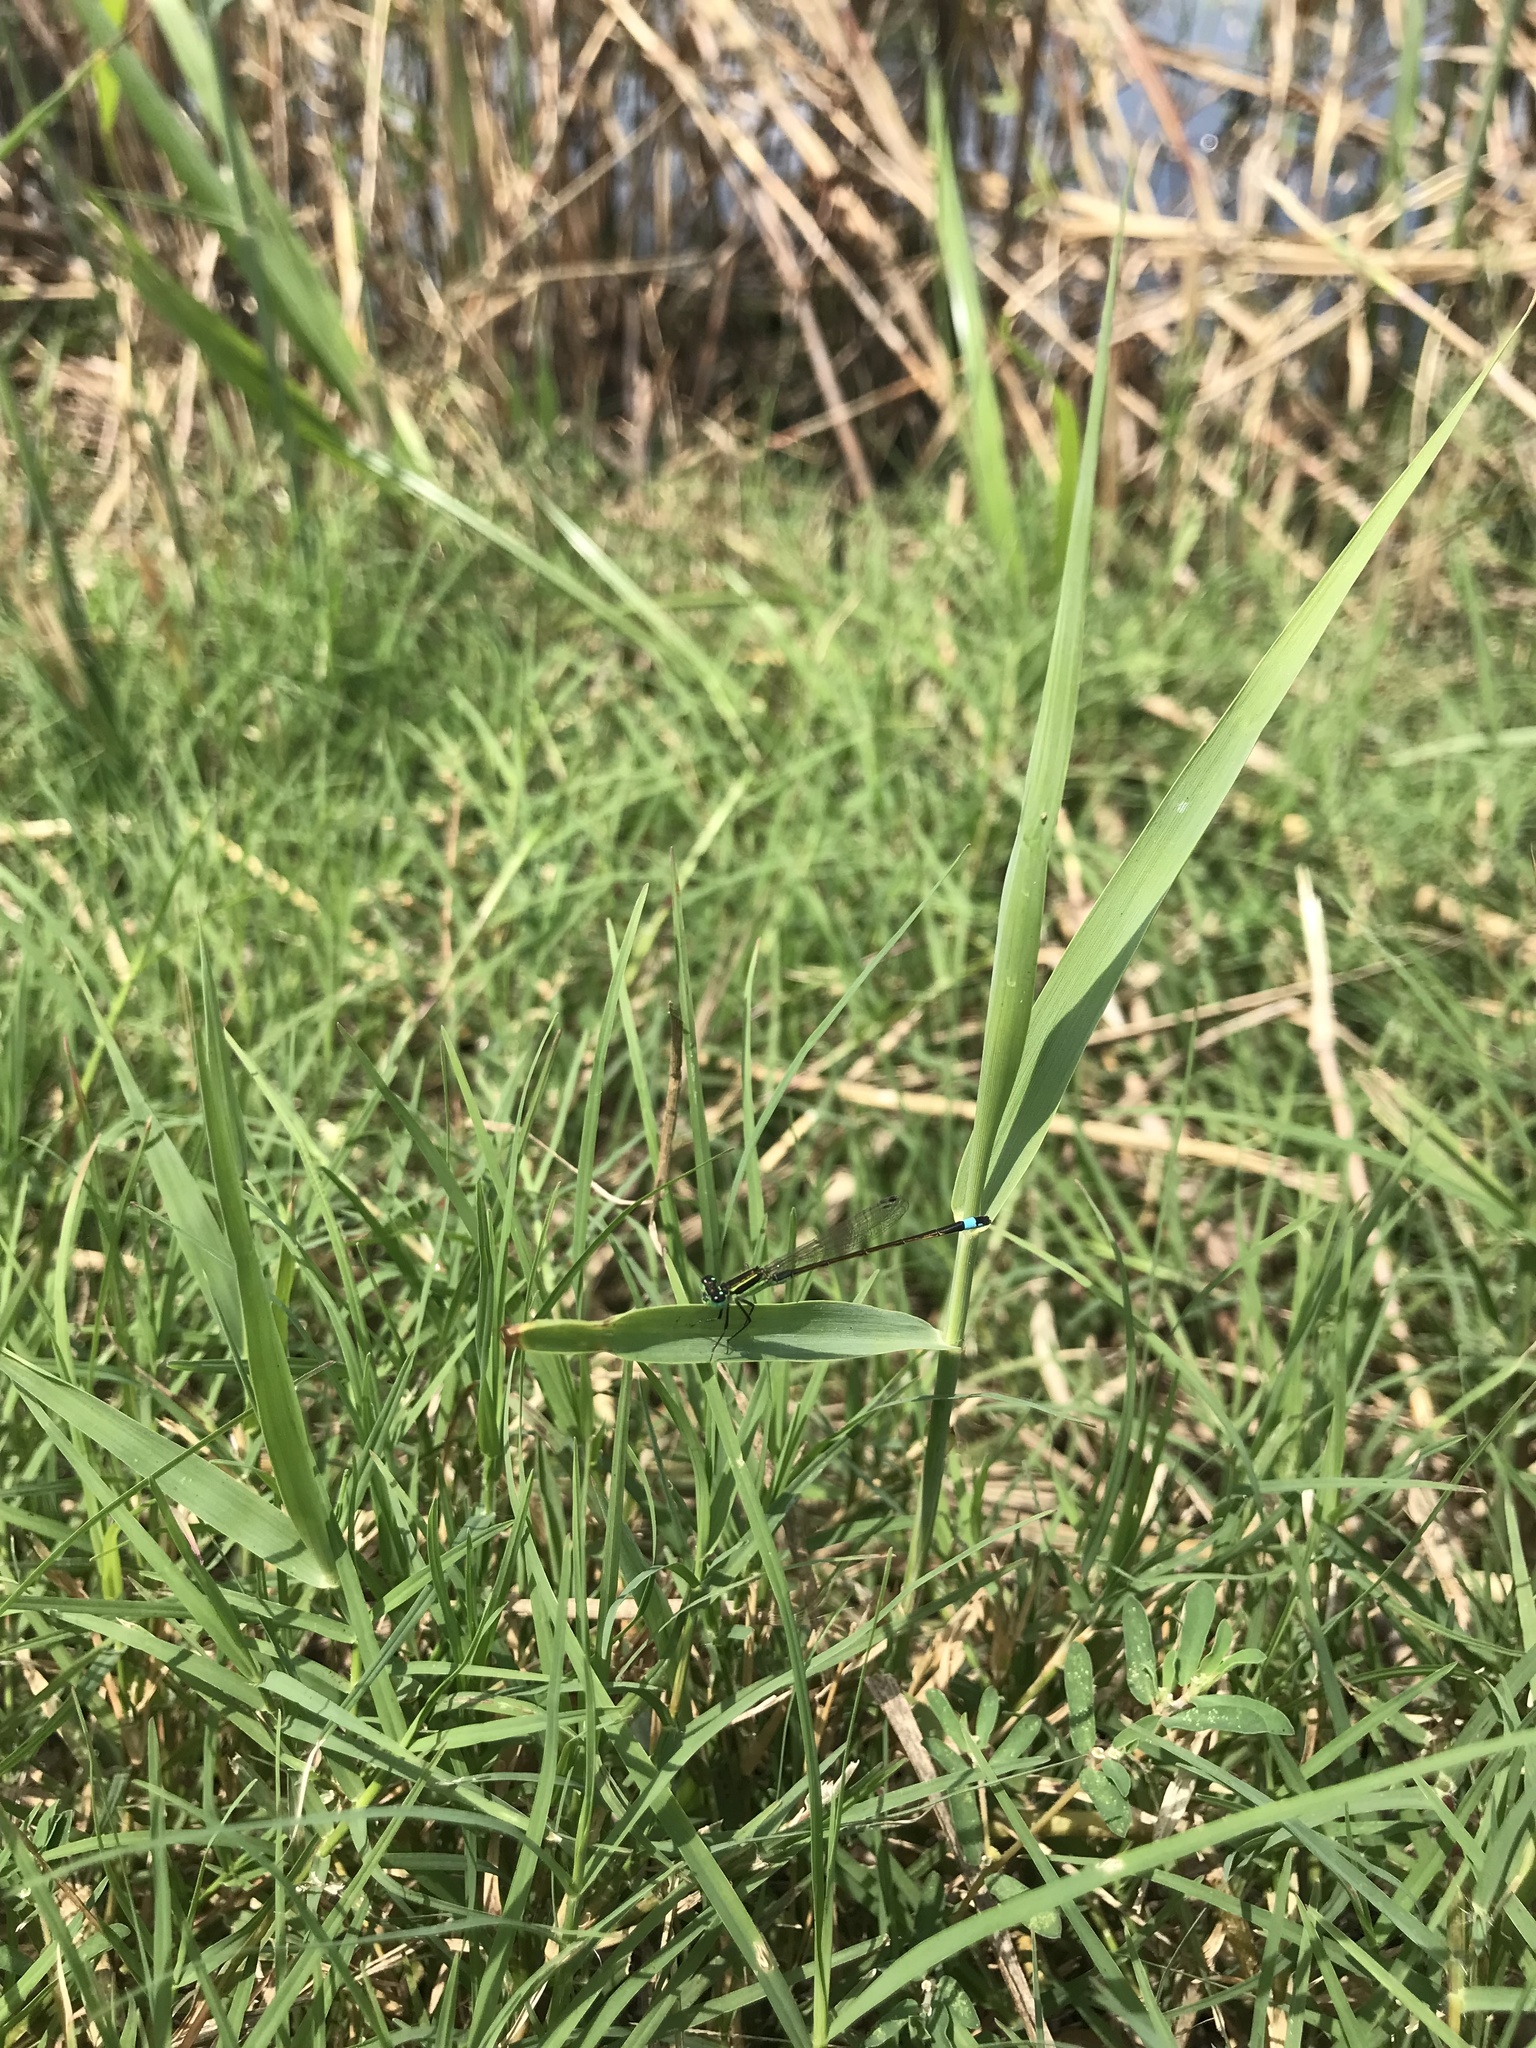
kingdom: Animalia
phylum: Arthropoda
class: Insecta
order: Odonata
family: Coenagrionidae
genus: Ischnura
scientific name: Ischnura ramburii
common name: Rambur's forktail
